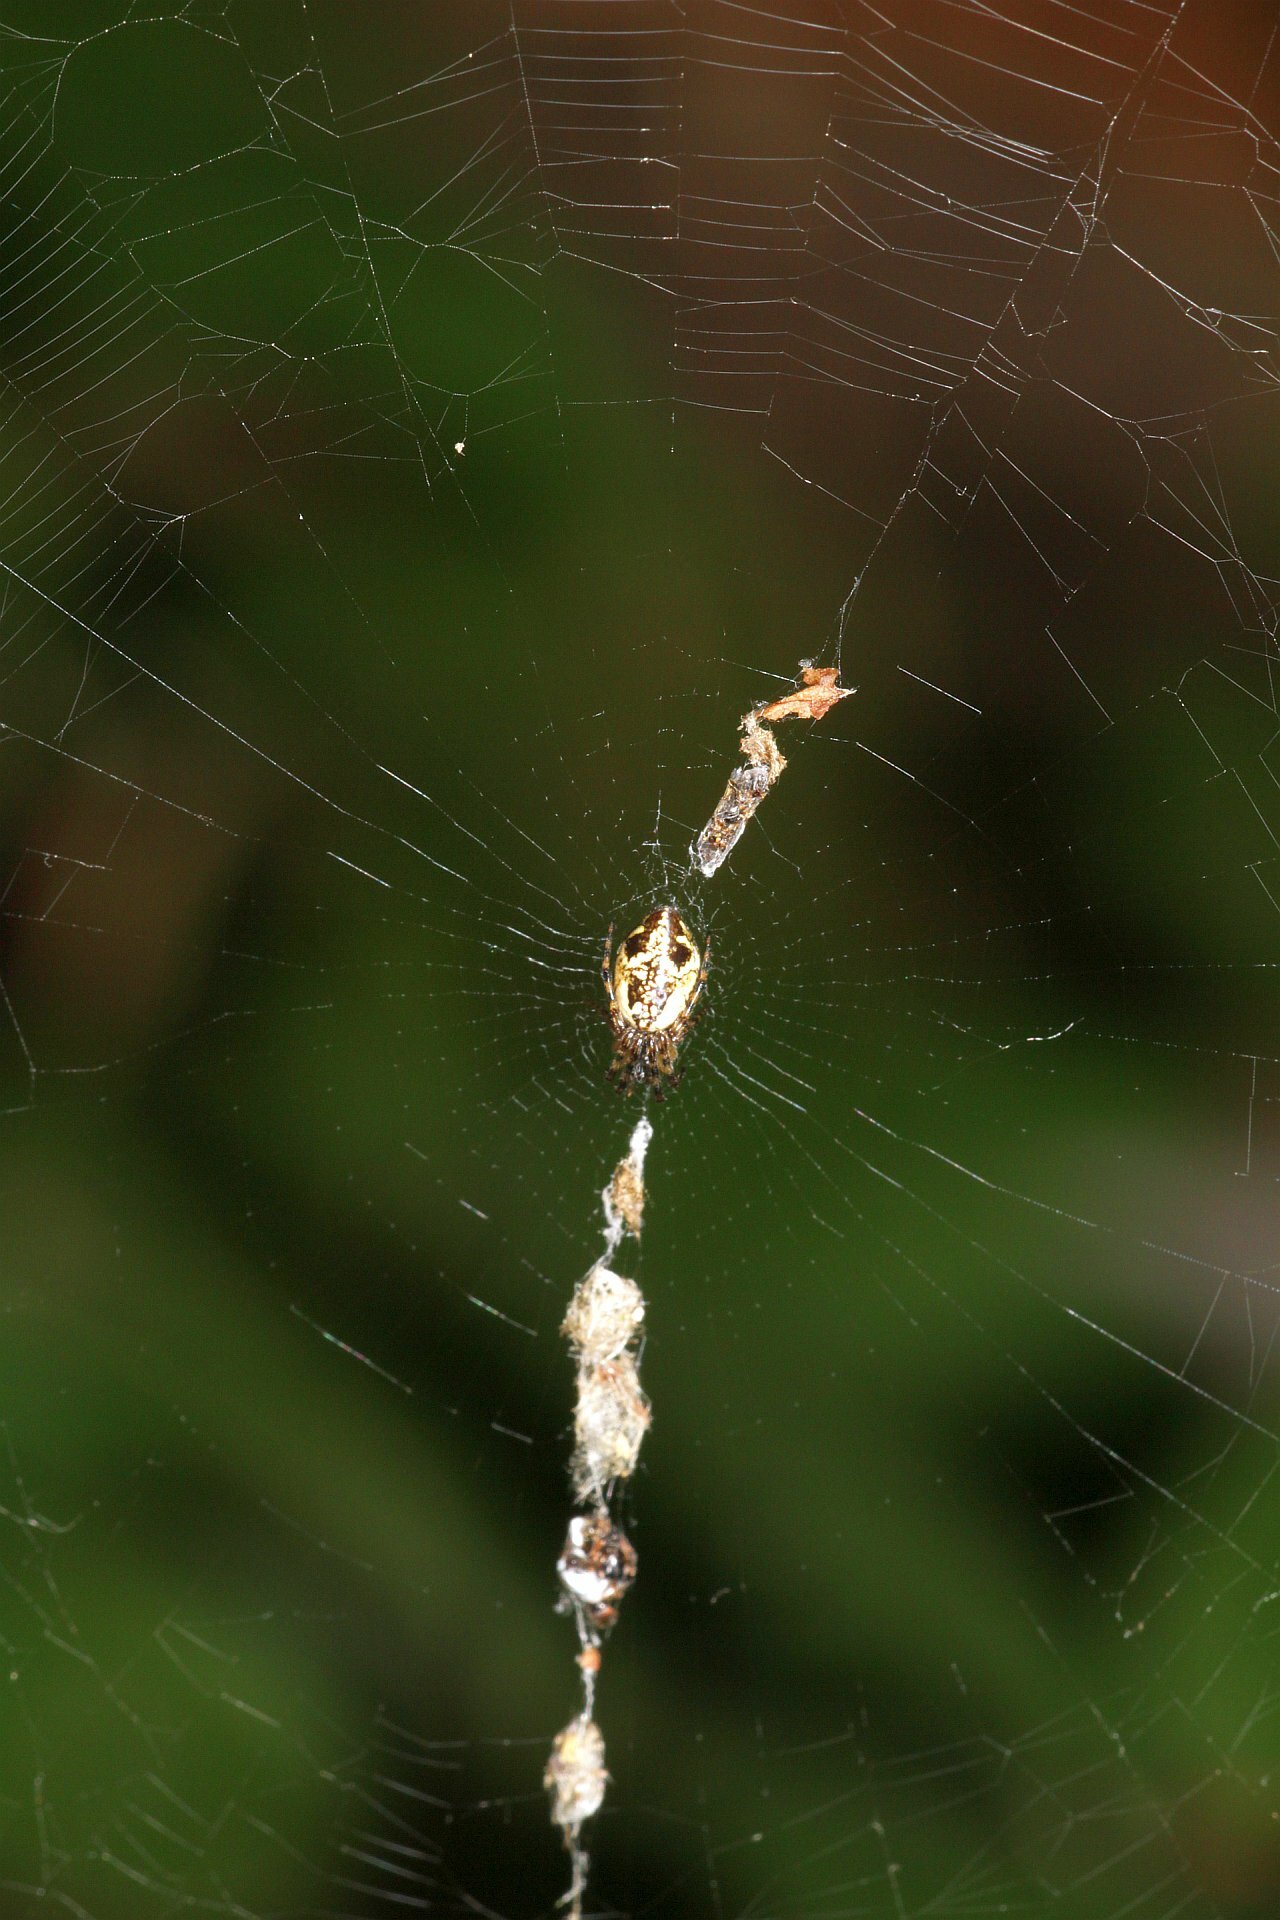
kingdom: Animalia
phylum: Arthropoda
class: Arachnida
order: Araneae
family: Araneidae
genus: Cyclosa
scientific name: Cyclosa conica
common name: Conical trashline orbweaver
